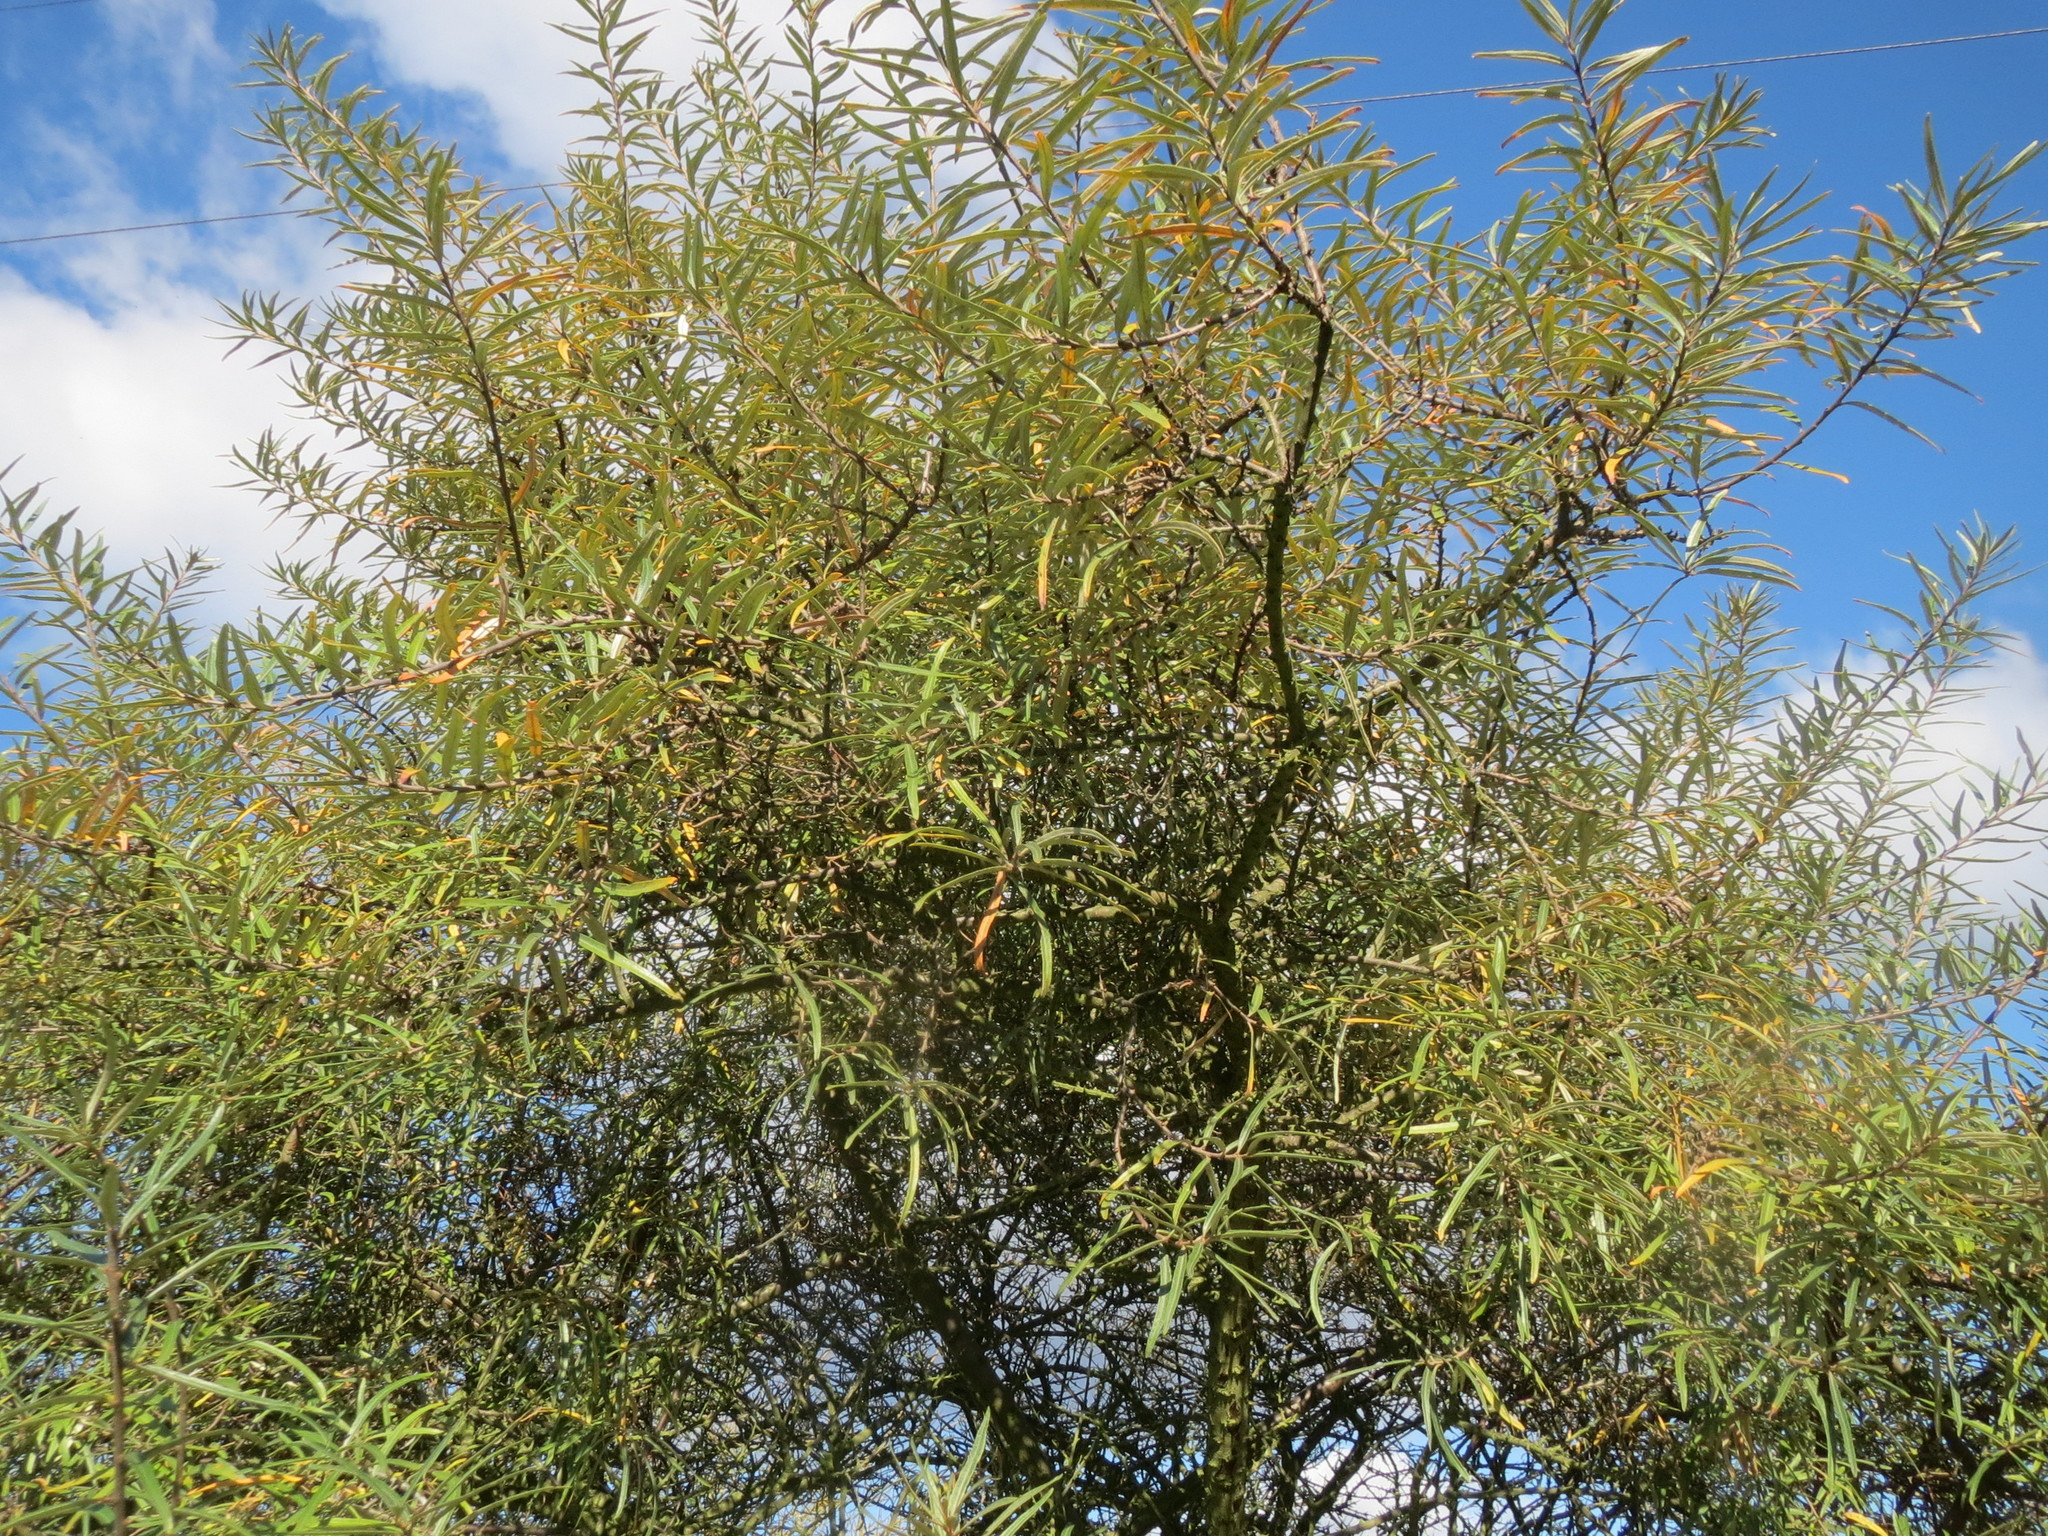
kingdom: Plantae
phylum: Tracheophyta
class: Magnoliopsida
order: Rosales
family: Elaeagnaceae
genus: Hippophae
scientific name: Hippophae rhamnoides
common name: Sea-buckthorn
